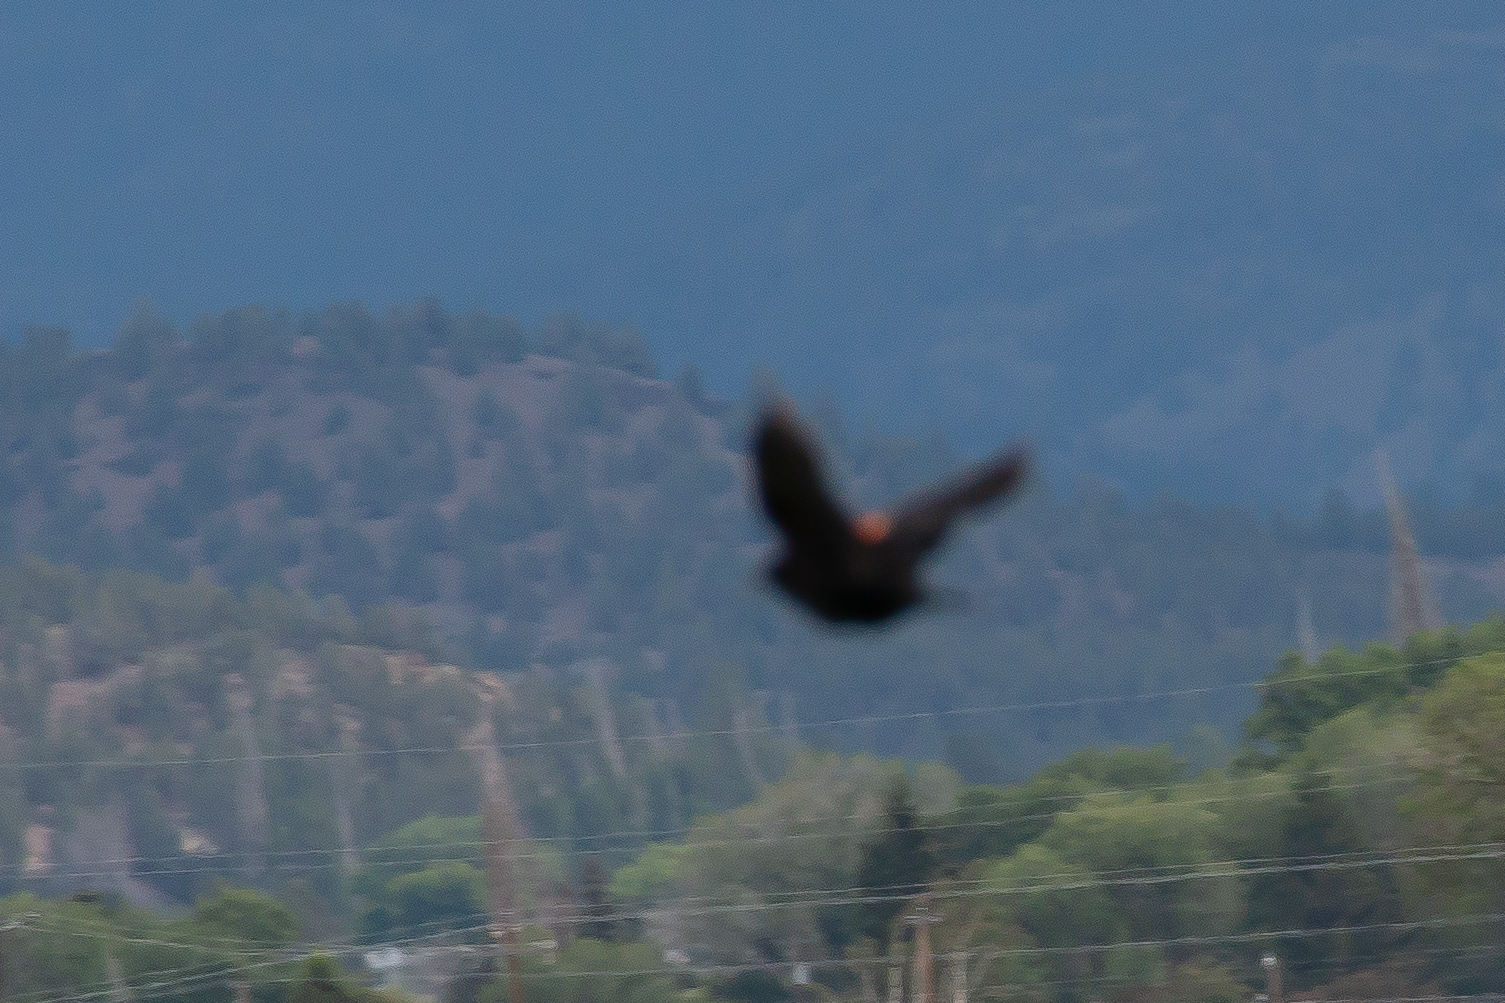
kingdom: Animalia
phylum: Chordata
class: Aves
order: Passeriformes
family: Icteridae
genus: Agelaius
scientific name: Agelaius phoeniceus
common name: Red-winged blackbird
